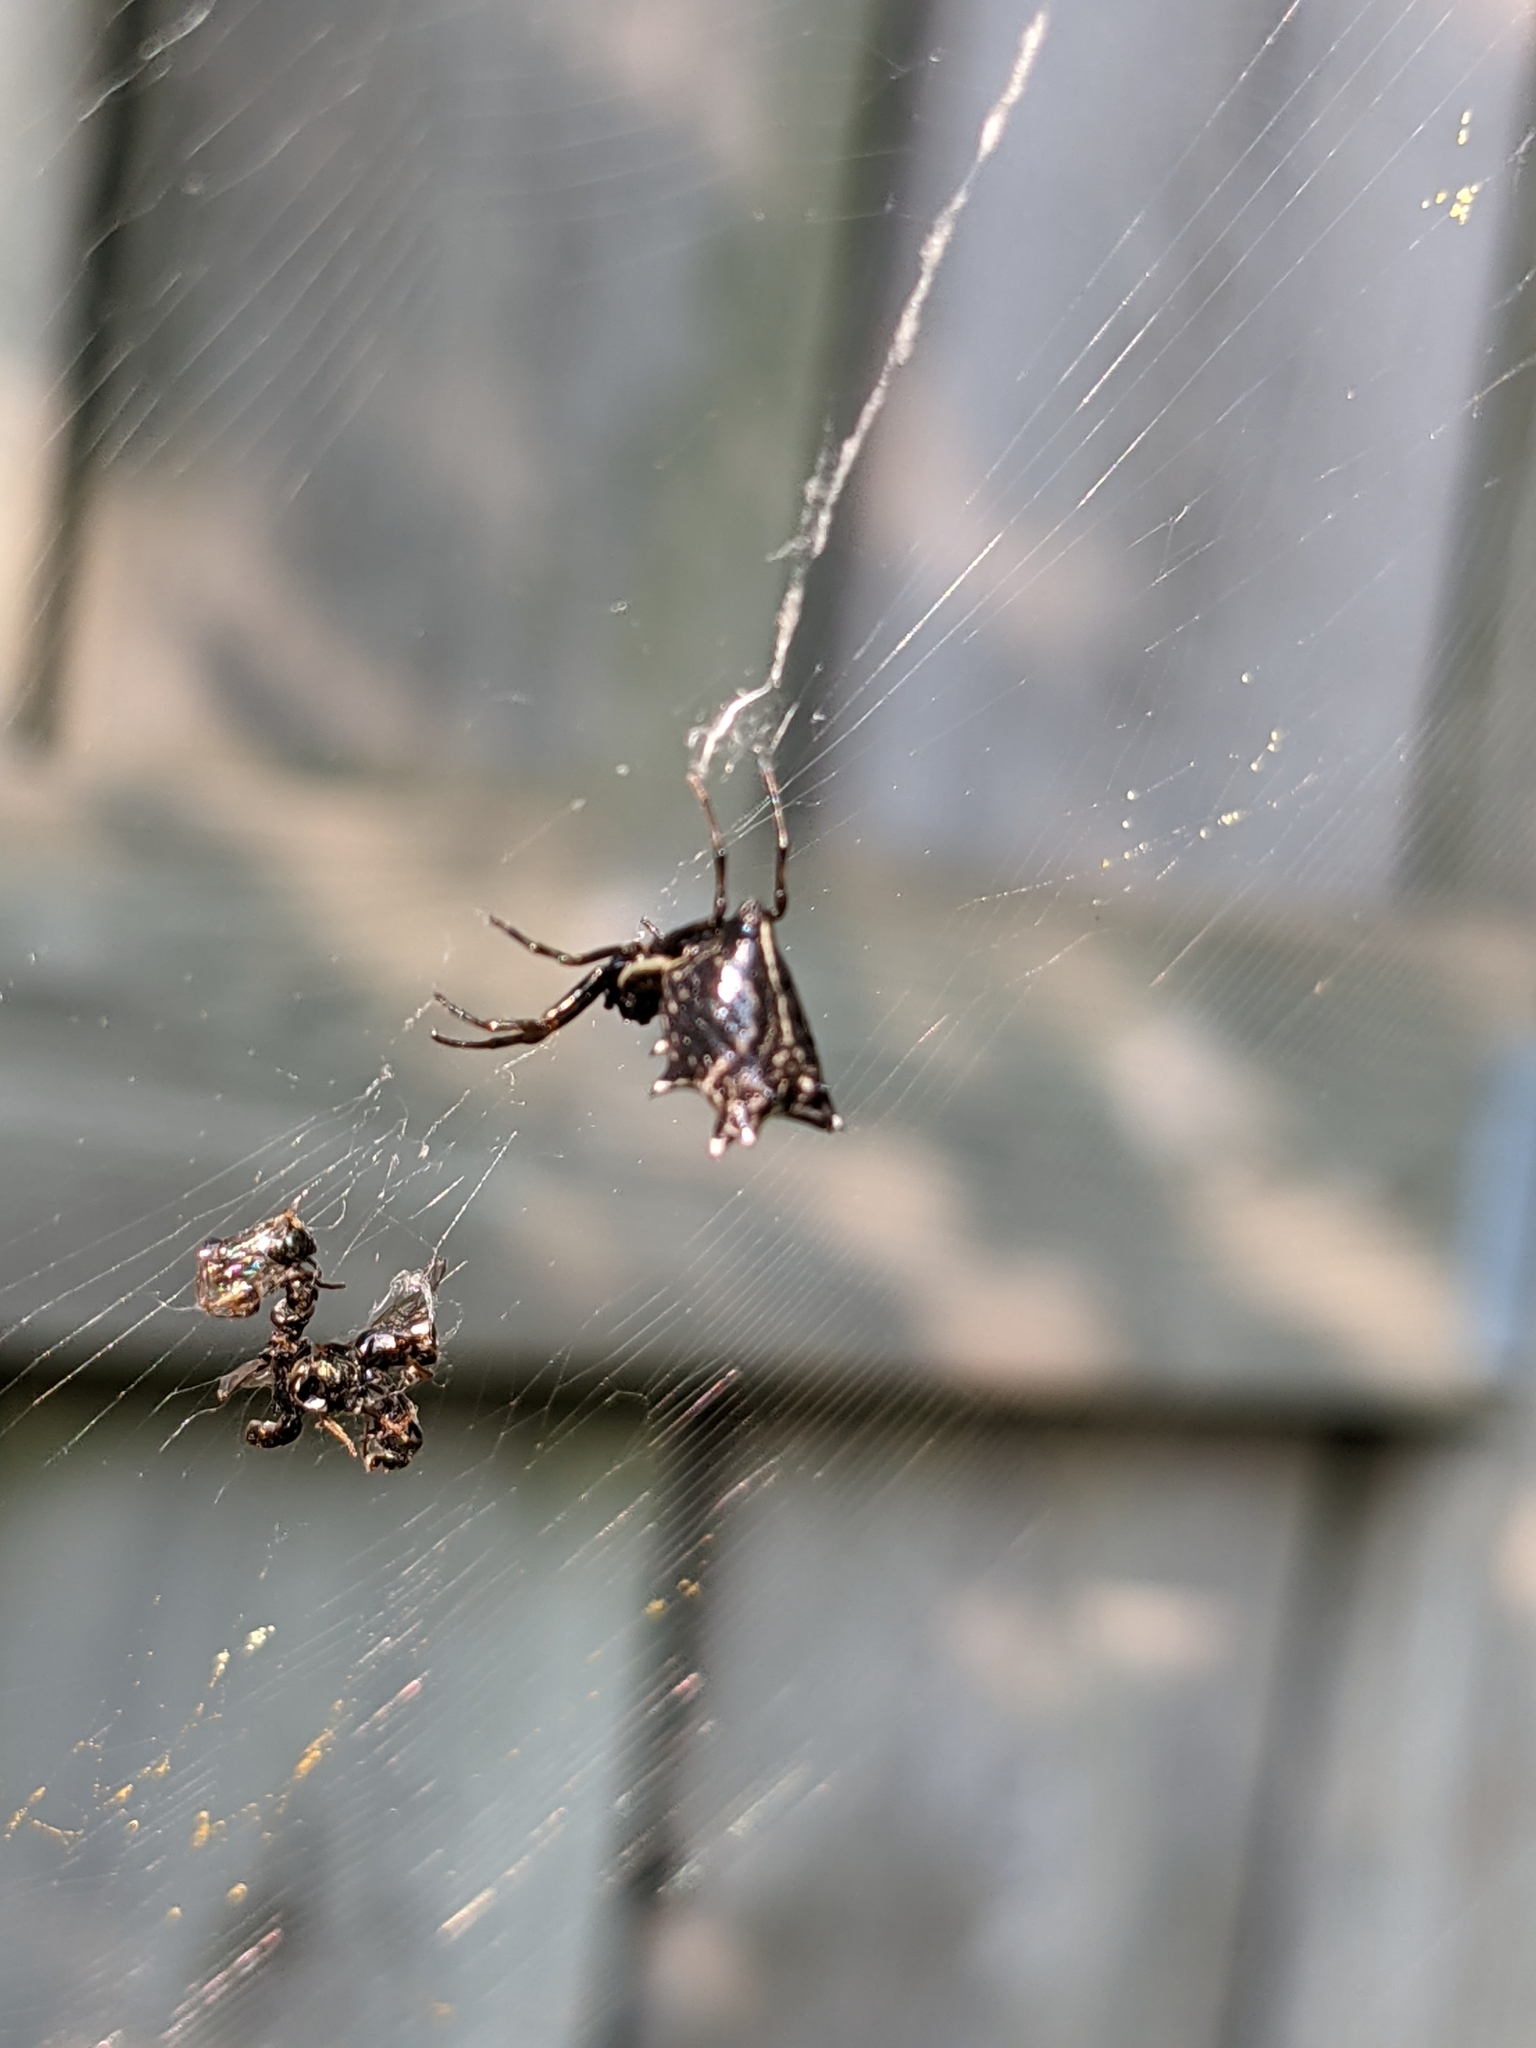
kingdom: Animalia
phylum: Arthropoda
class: Arachnida
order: Araneae
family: Araneidae
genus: Micrathena
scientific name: Micrathena gracilis
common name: Orb weavers
